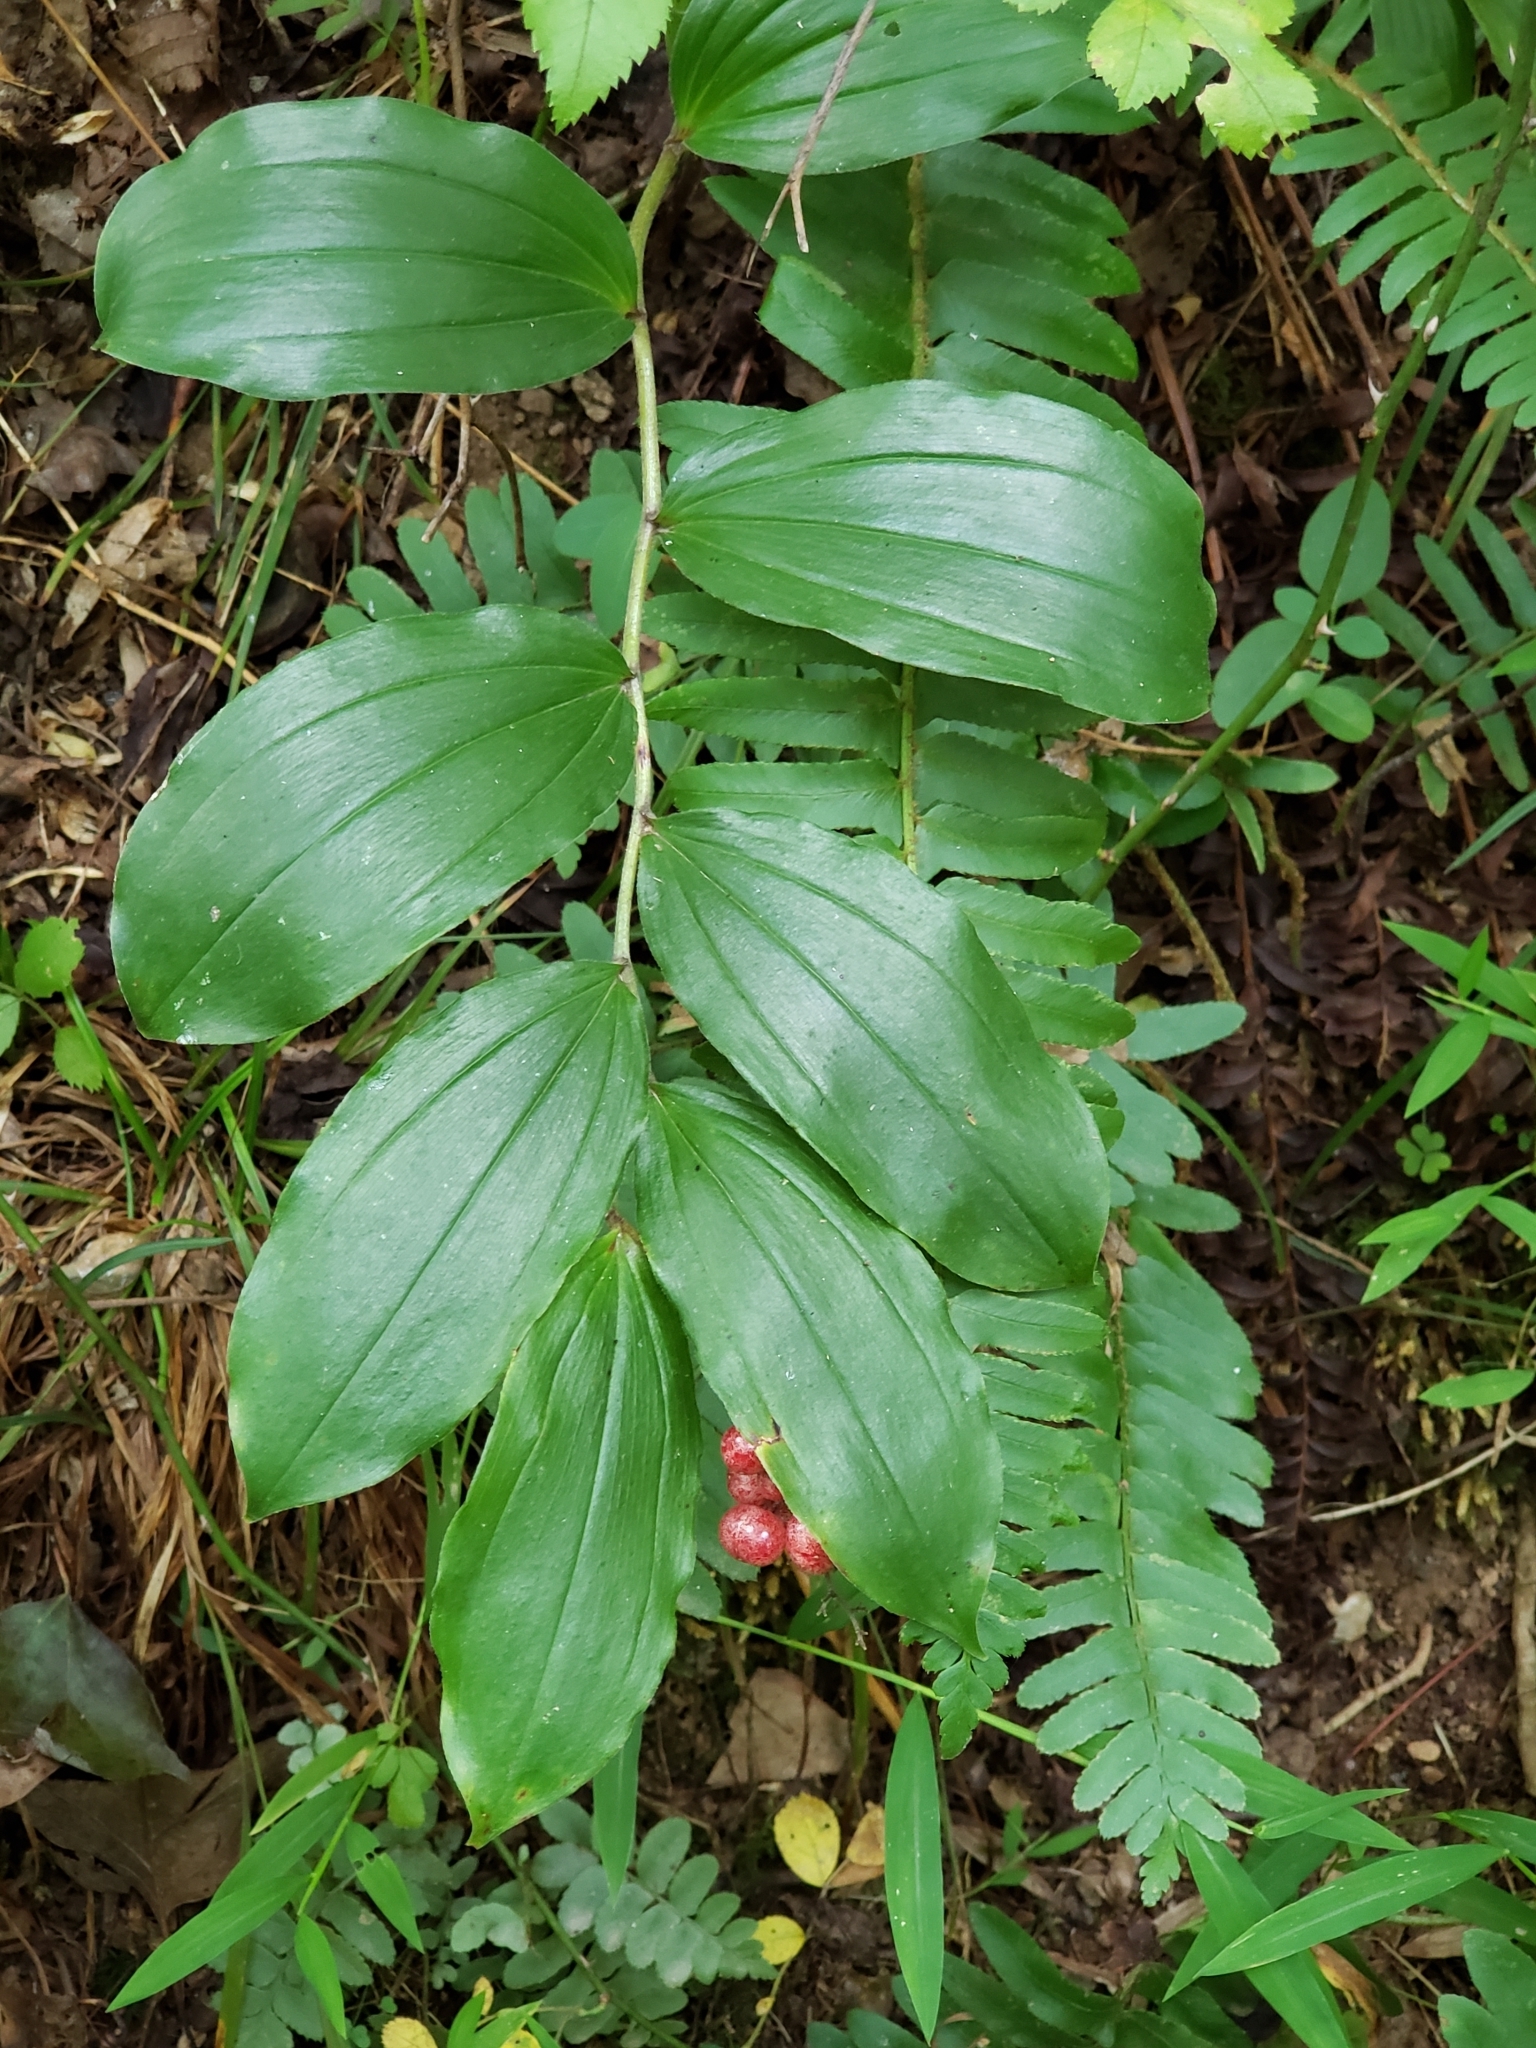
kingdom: Plantae
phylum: Tracheophyta
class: Liliopsida
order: Asparagales
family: Asparagaceae
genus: Maianthemum
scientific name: Maianthemum racemosum
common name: False spikenard
